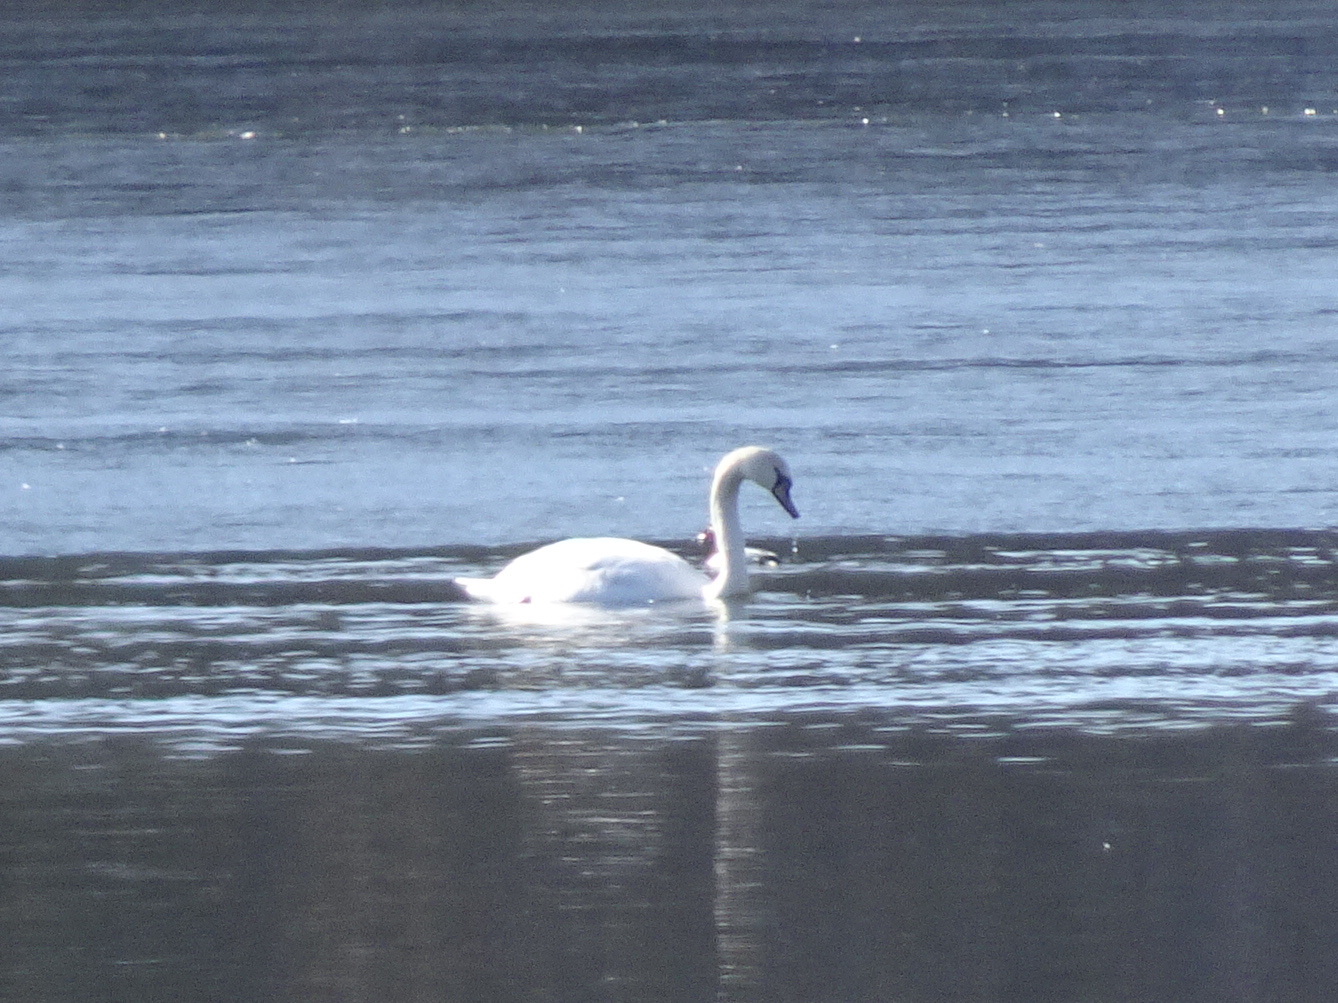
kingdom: Animalia
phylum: Chordata
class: Aves
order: Anseriformes
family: Anatidae
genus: Cygnus
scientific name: Cygnus olor
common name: Mute swan
